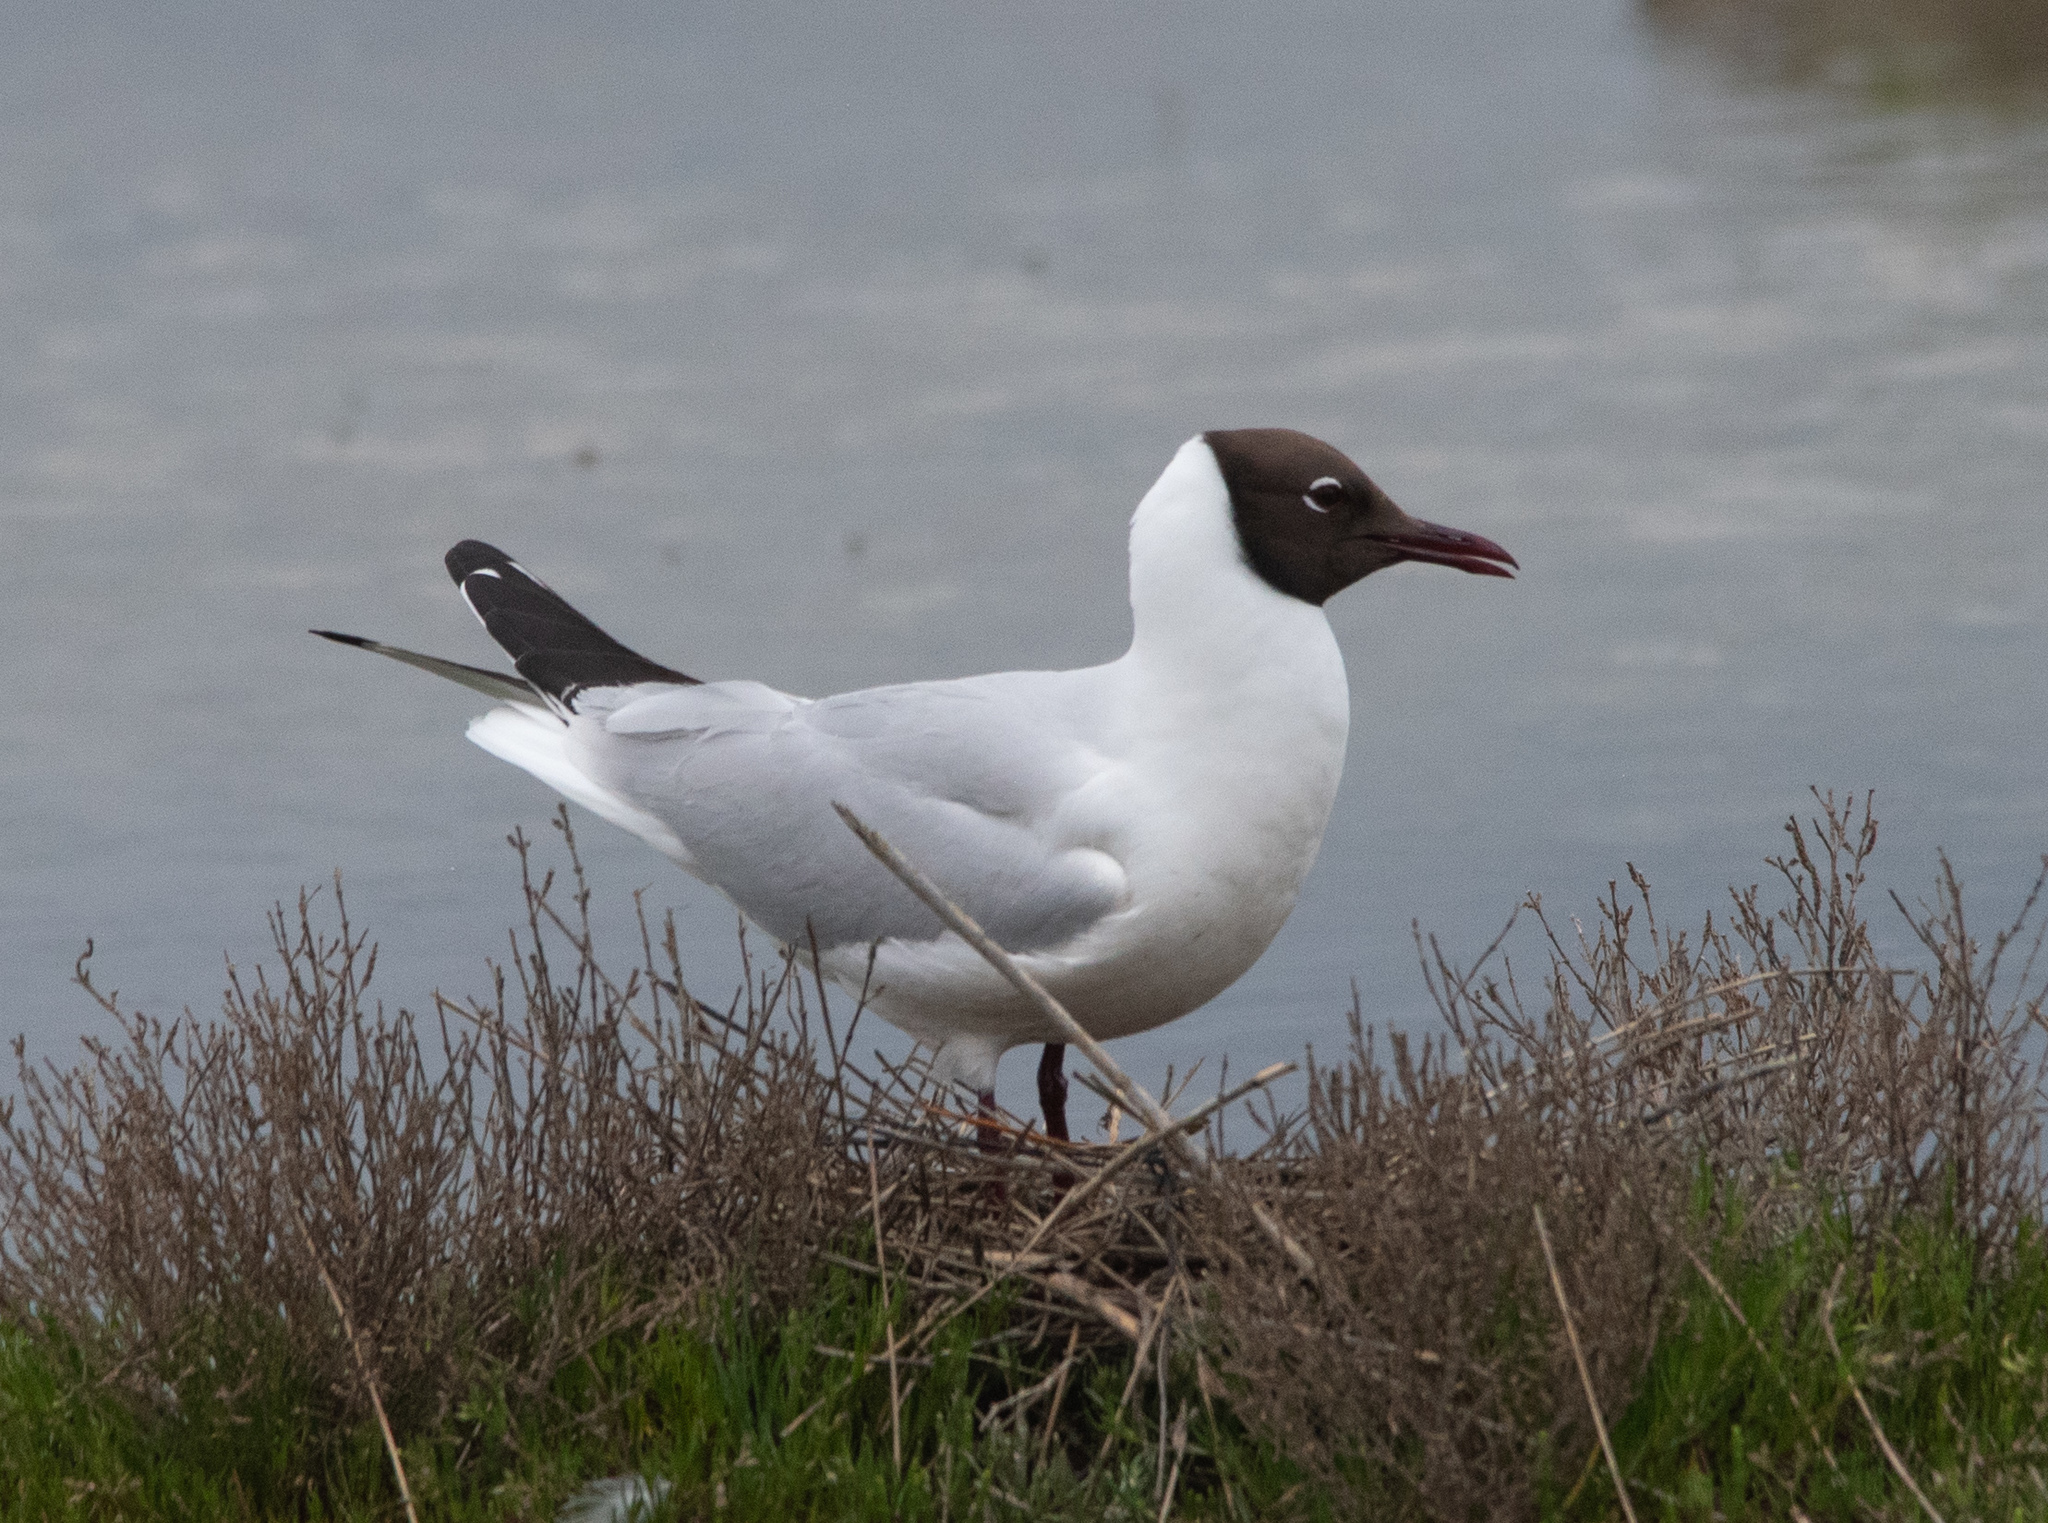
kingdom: Animalia
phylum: Chordata
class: Aves
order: Charadriiformes
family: Laridae
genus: Chroicocephalus
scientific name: Chroicocephalus ridibundus
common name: Black-headed gull
